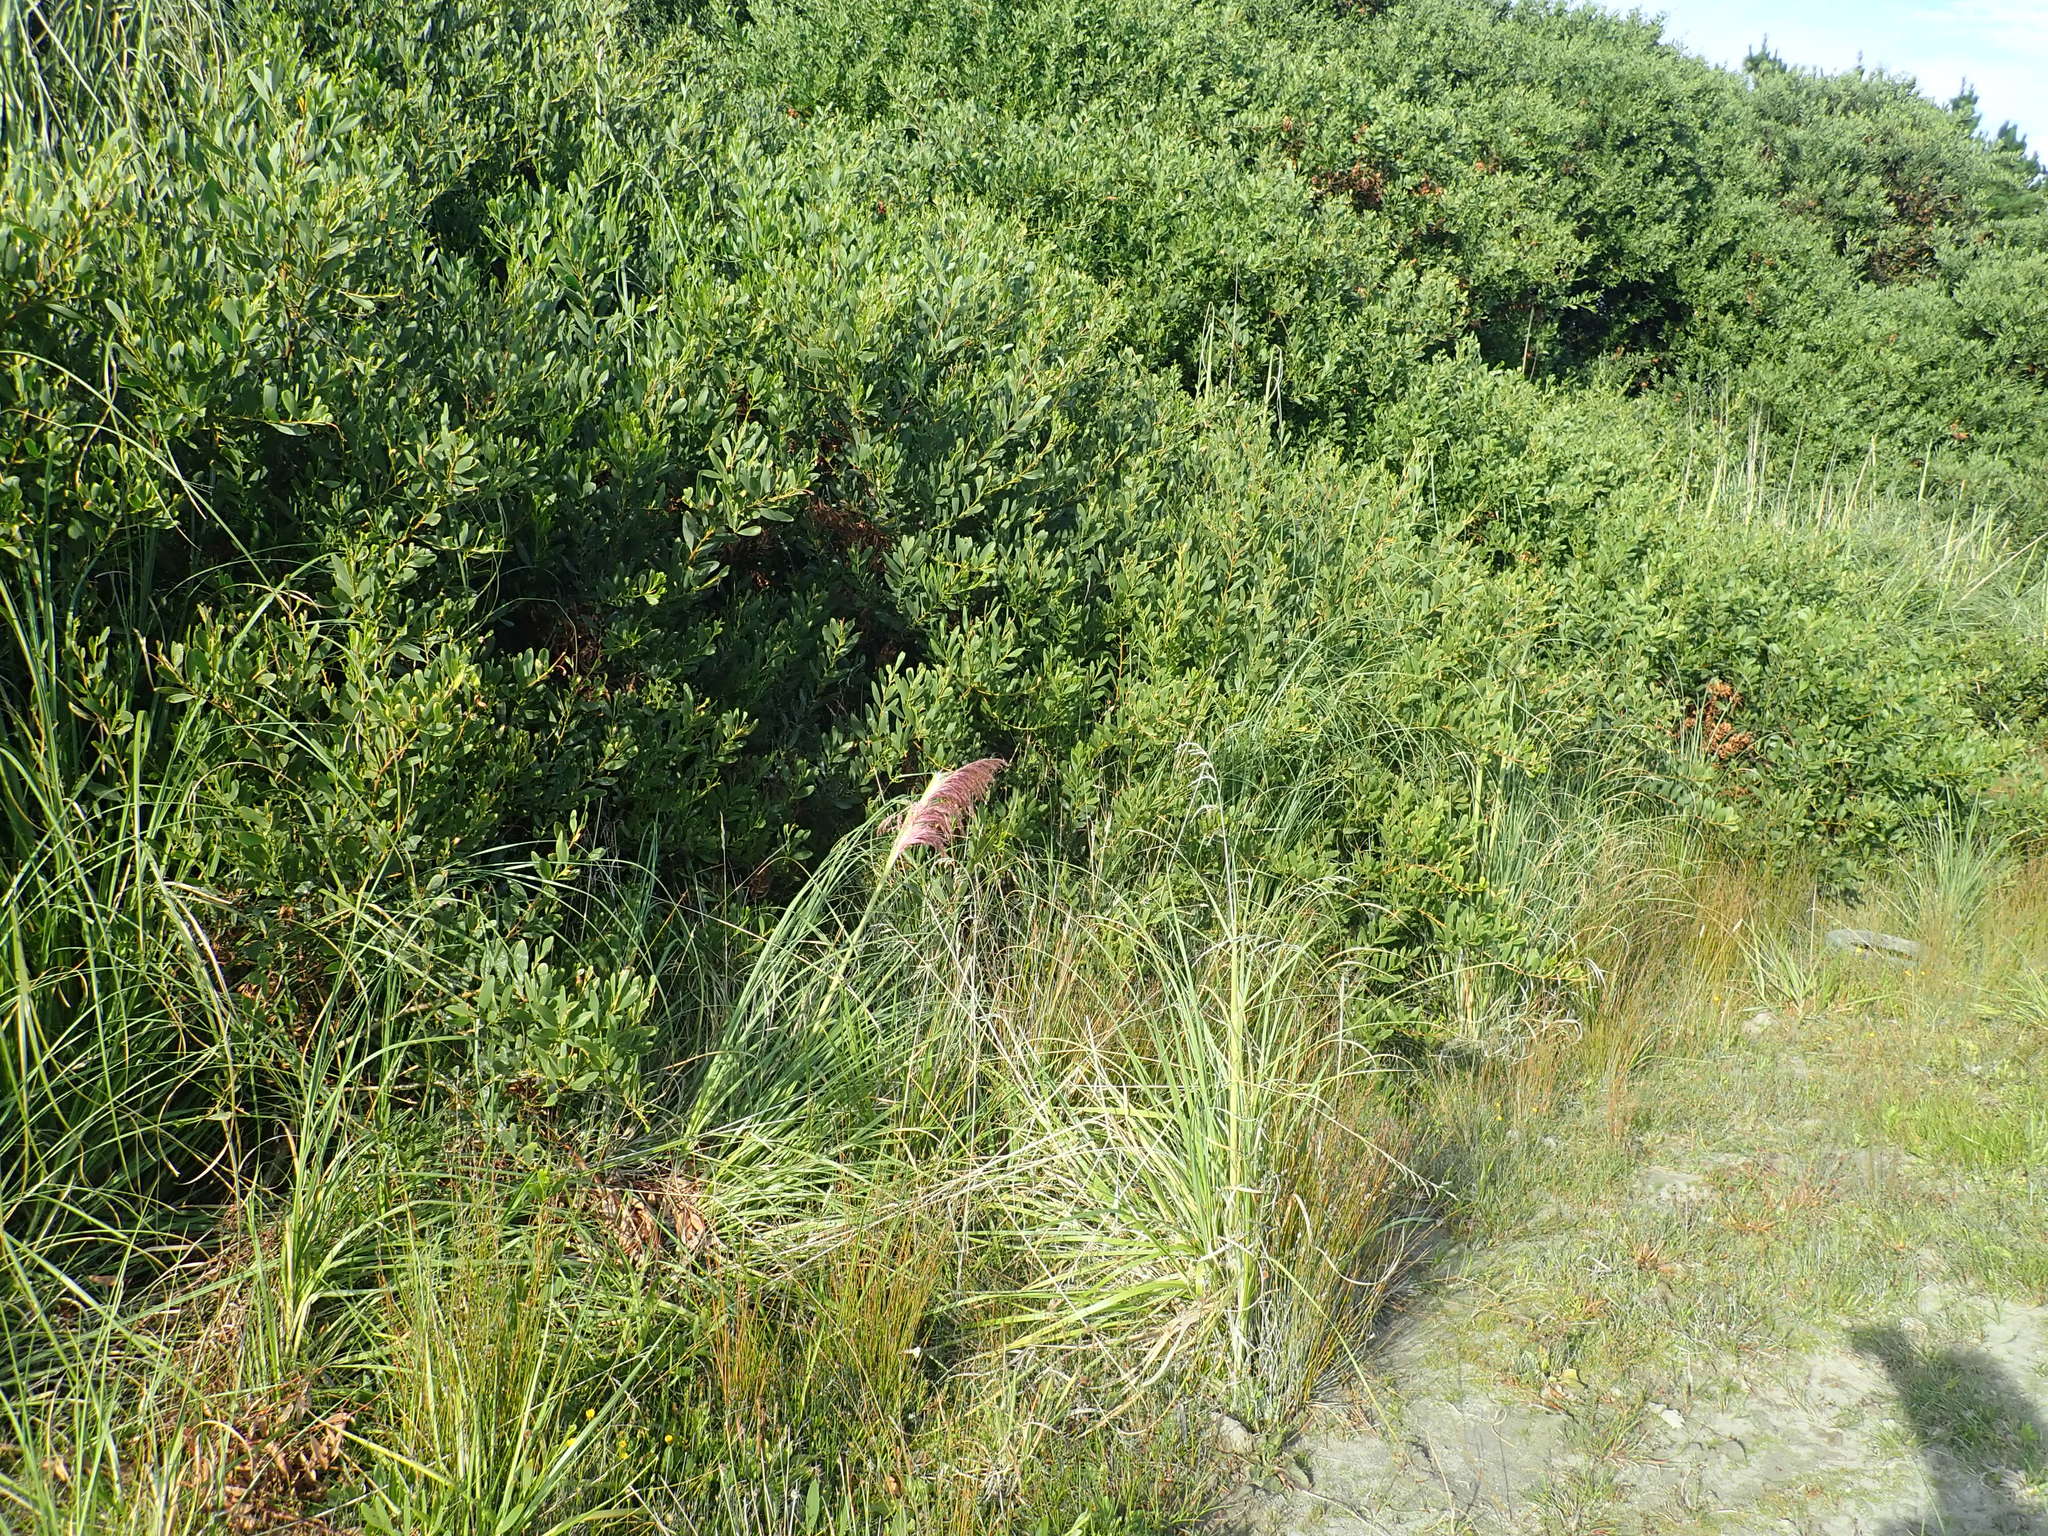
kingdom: Plantae
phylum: Tracheophyta
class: Liliopsida
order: Poales
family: Poaceae
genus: Cortaderia
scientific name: Cortaderia jubata
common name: Purple pampas grass
